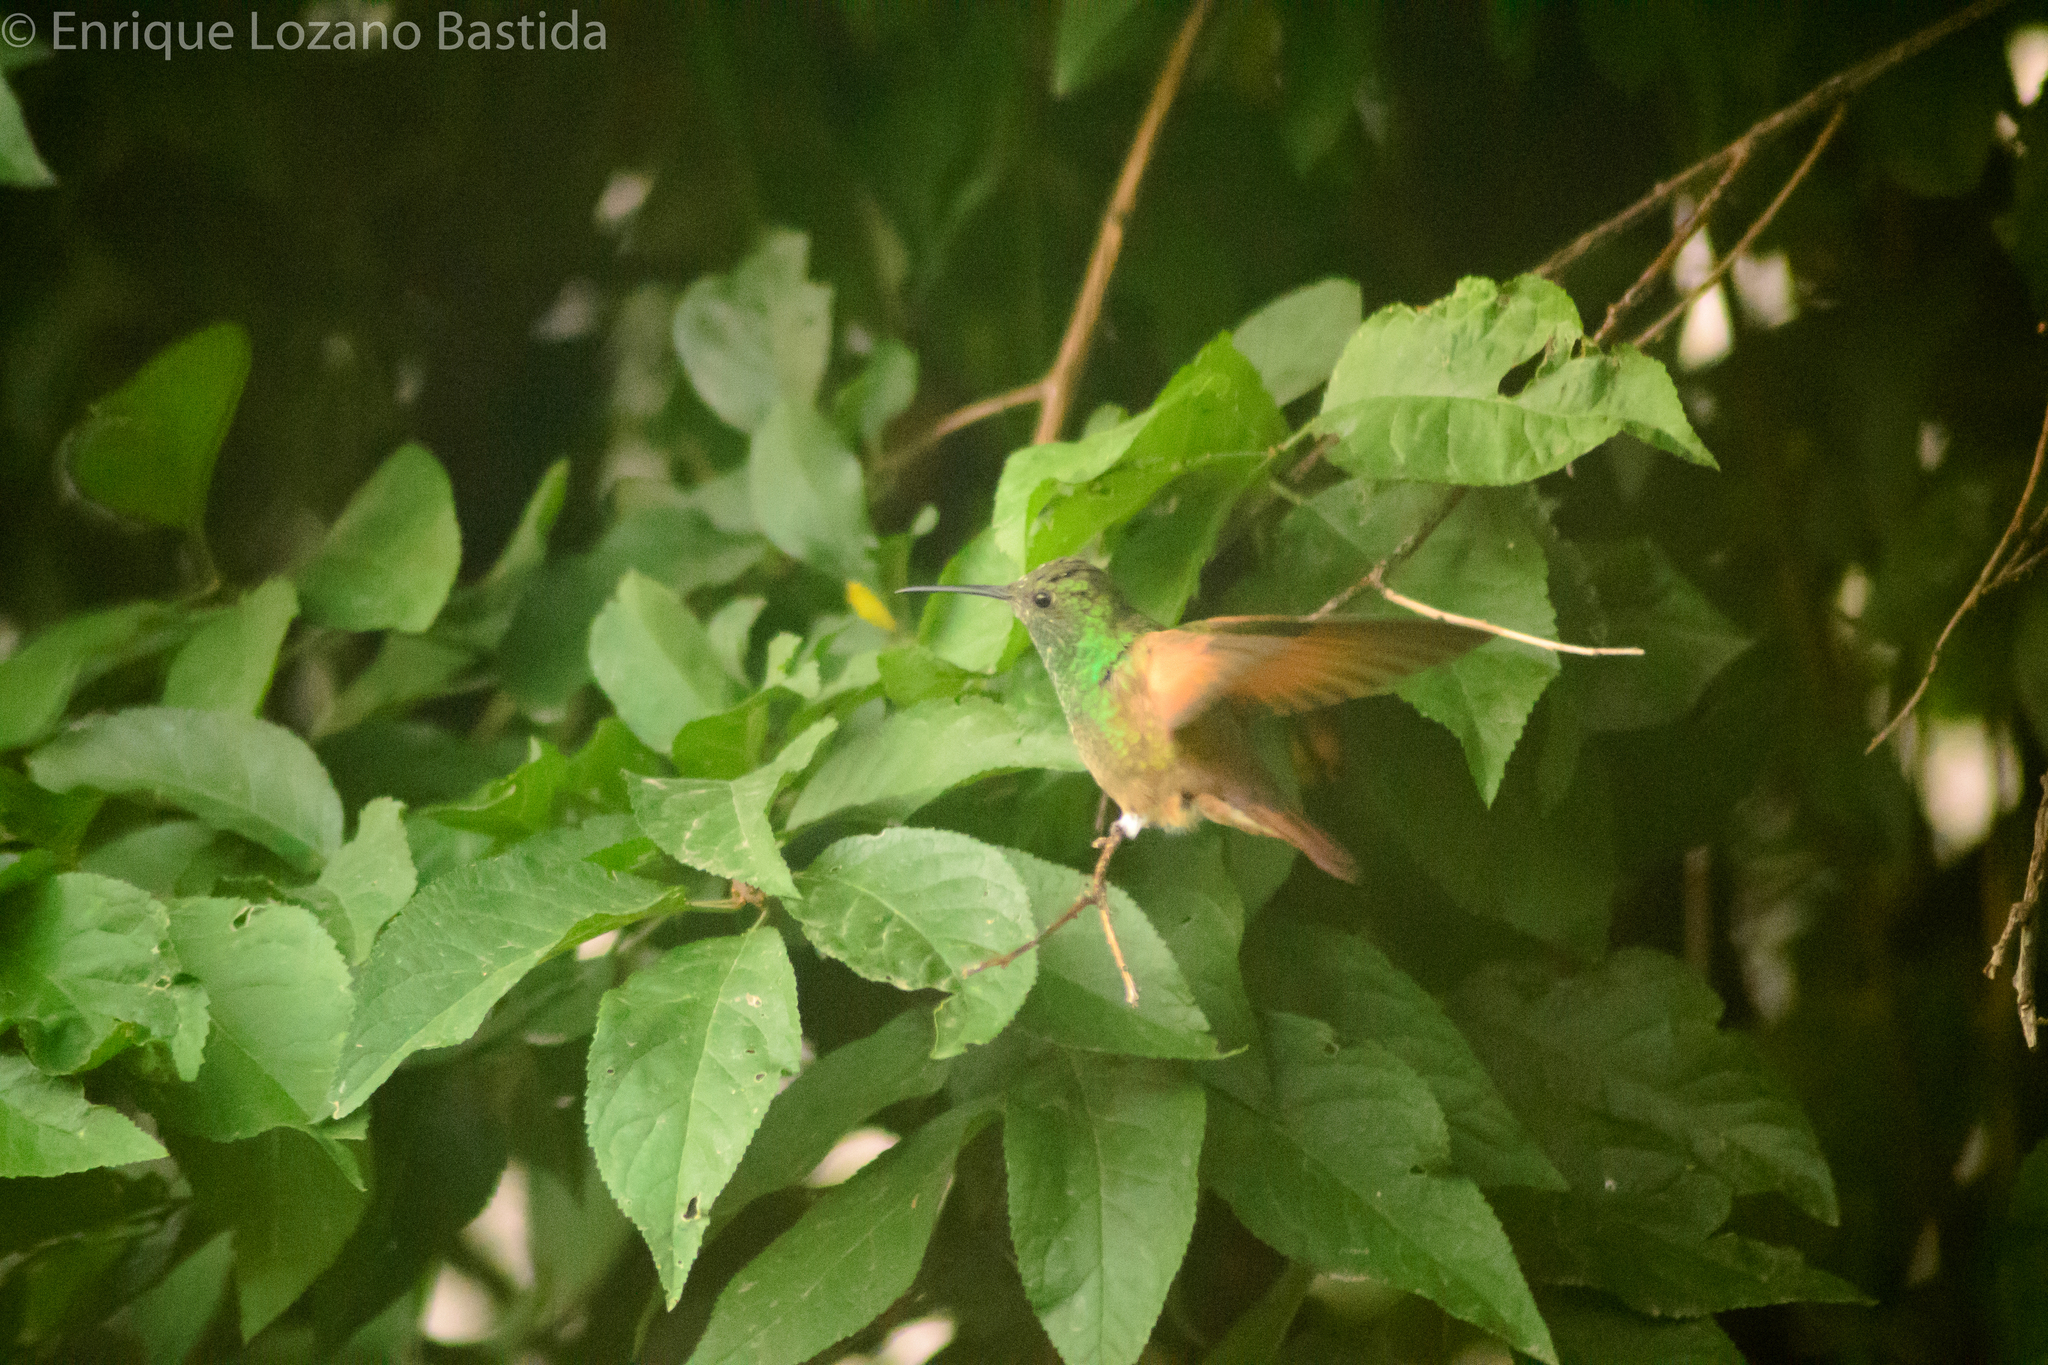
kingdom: Animalia
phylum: Chordata
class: Aves
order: Apodiformes
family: Trochilidae
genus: Saucerottia
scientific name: Saucerottia beryllina
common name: Berylline hummingbird
